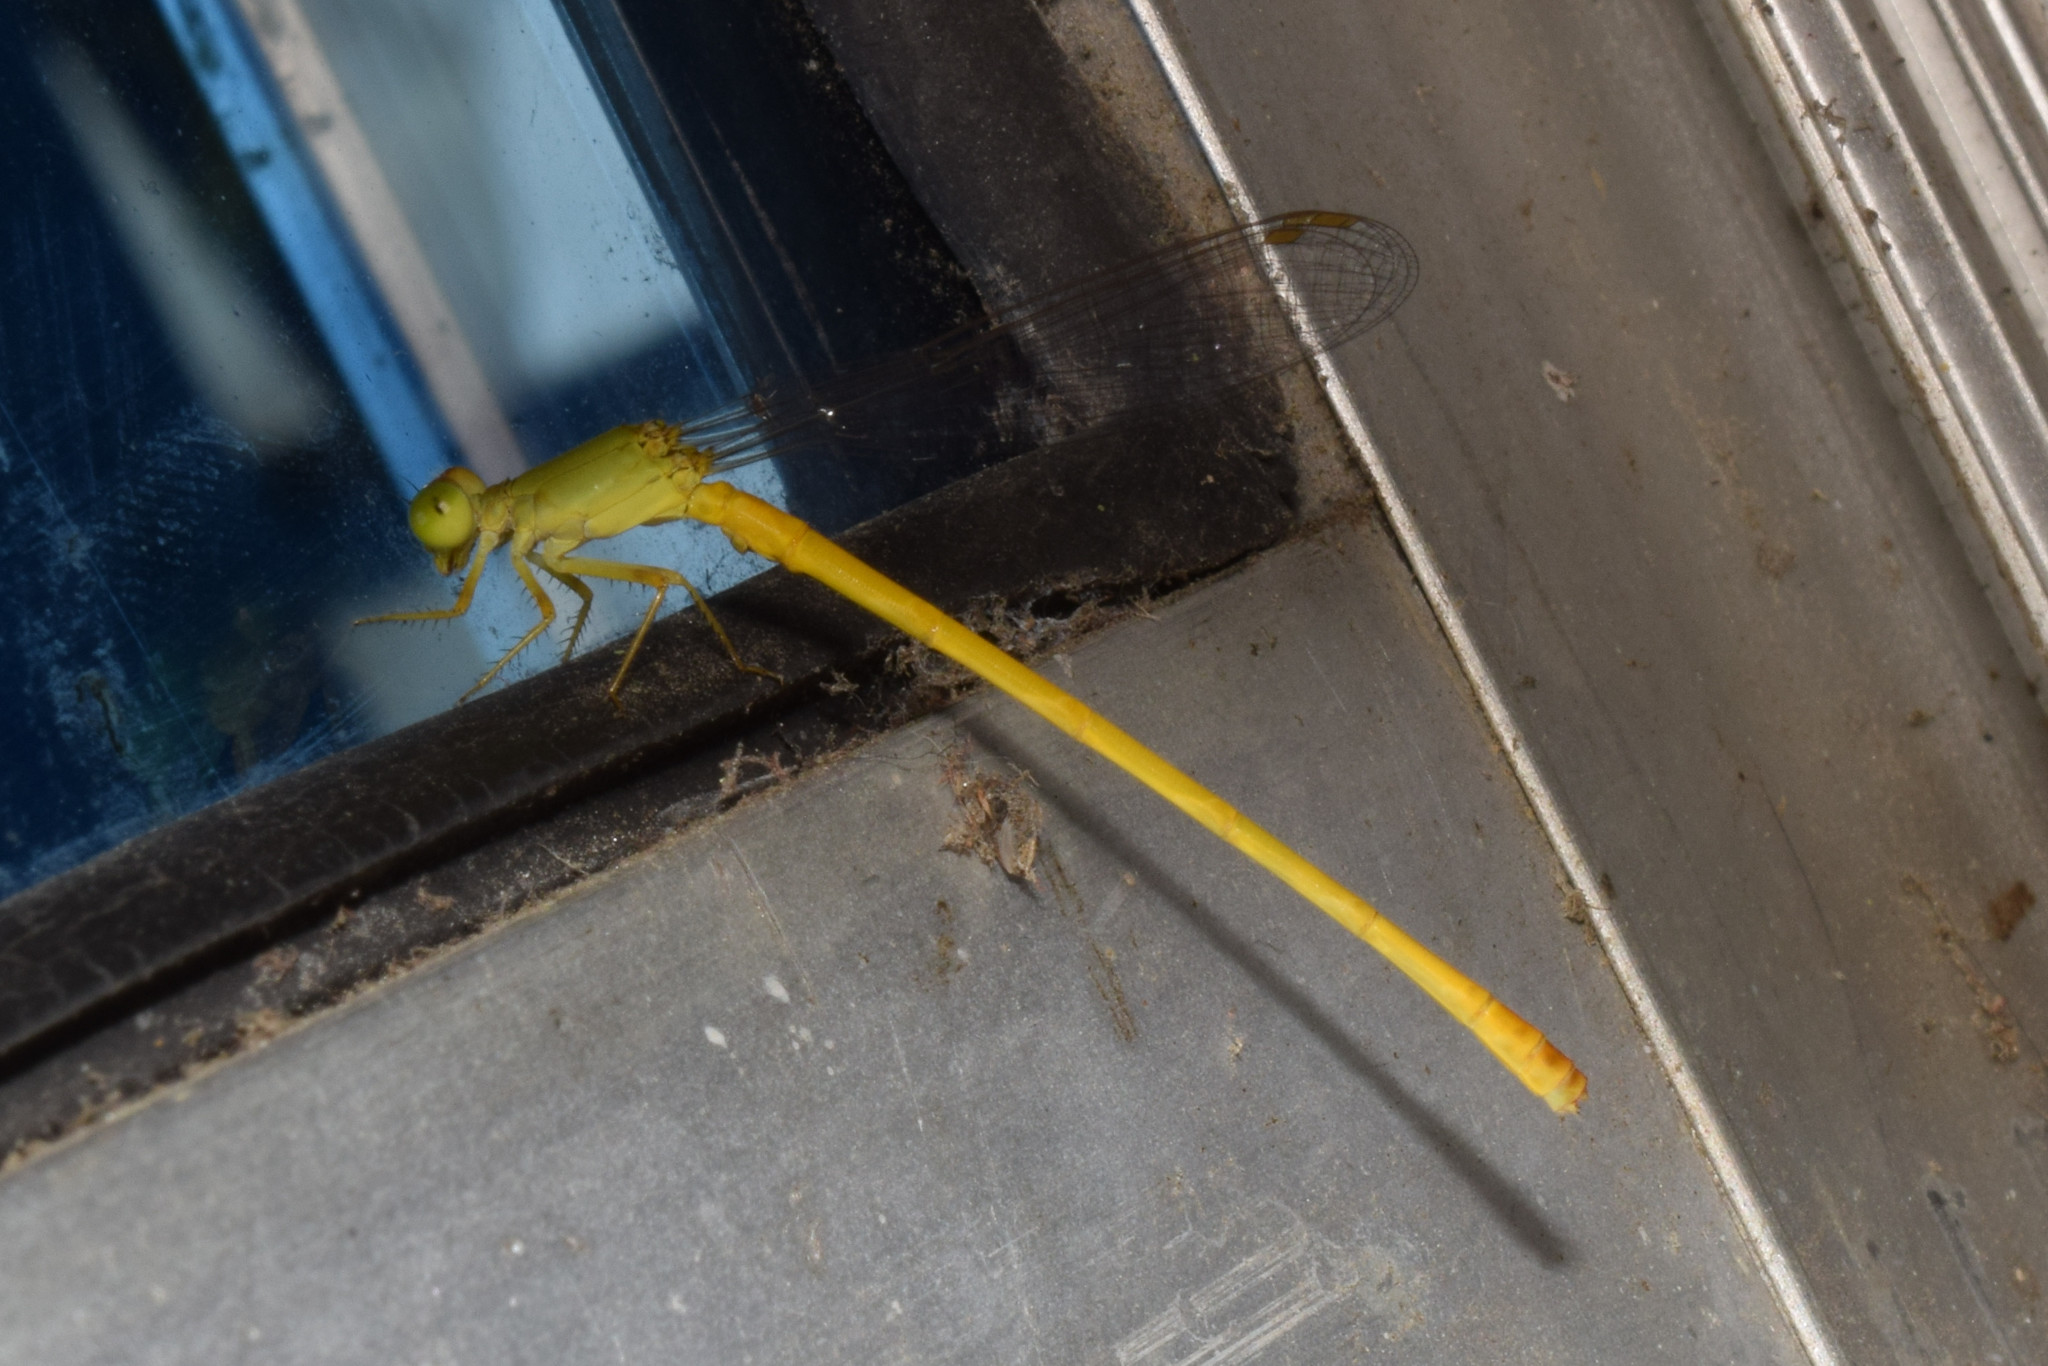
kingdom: Animalia
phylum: Arthropoda
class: Insecta
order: Odonata
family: Coenagrionidae
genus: Ceriagrion
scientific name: Ceriagrion coromandelianum
